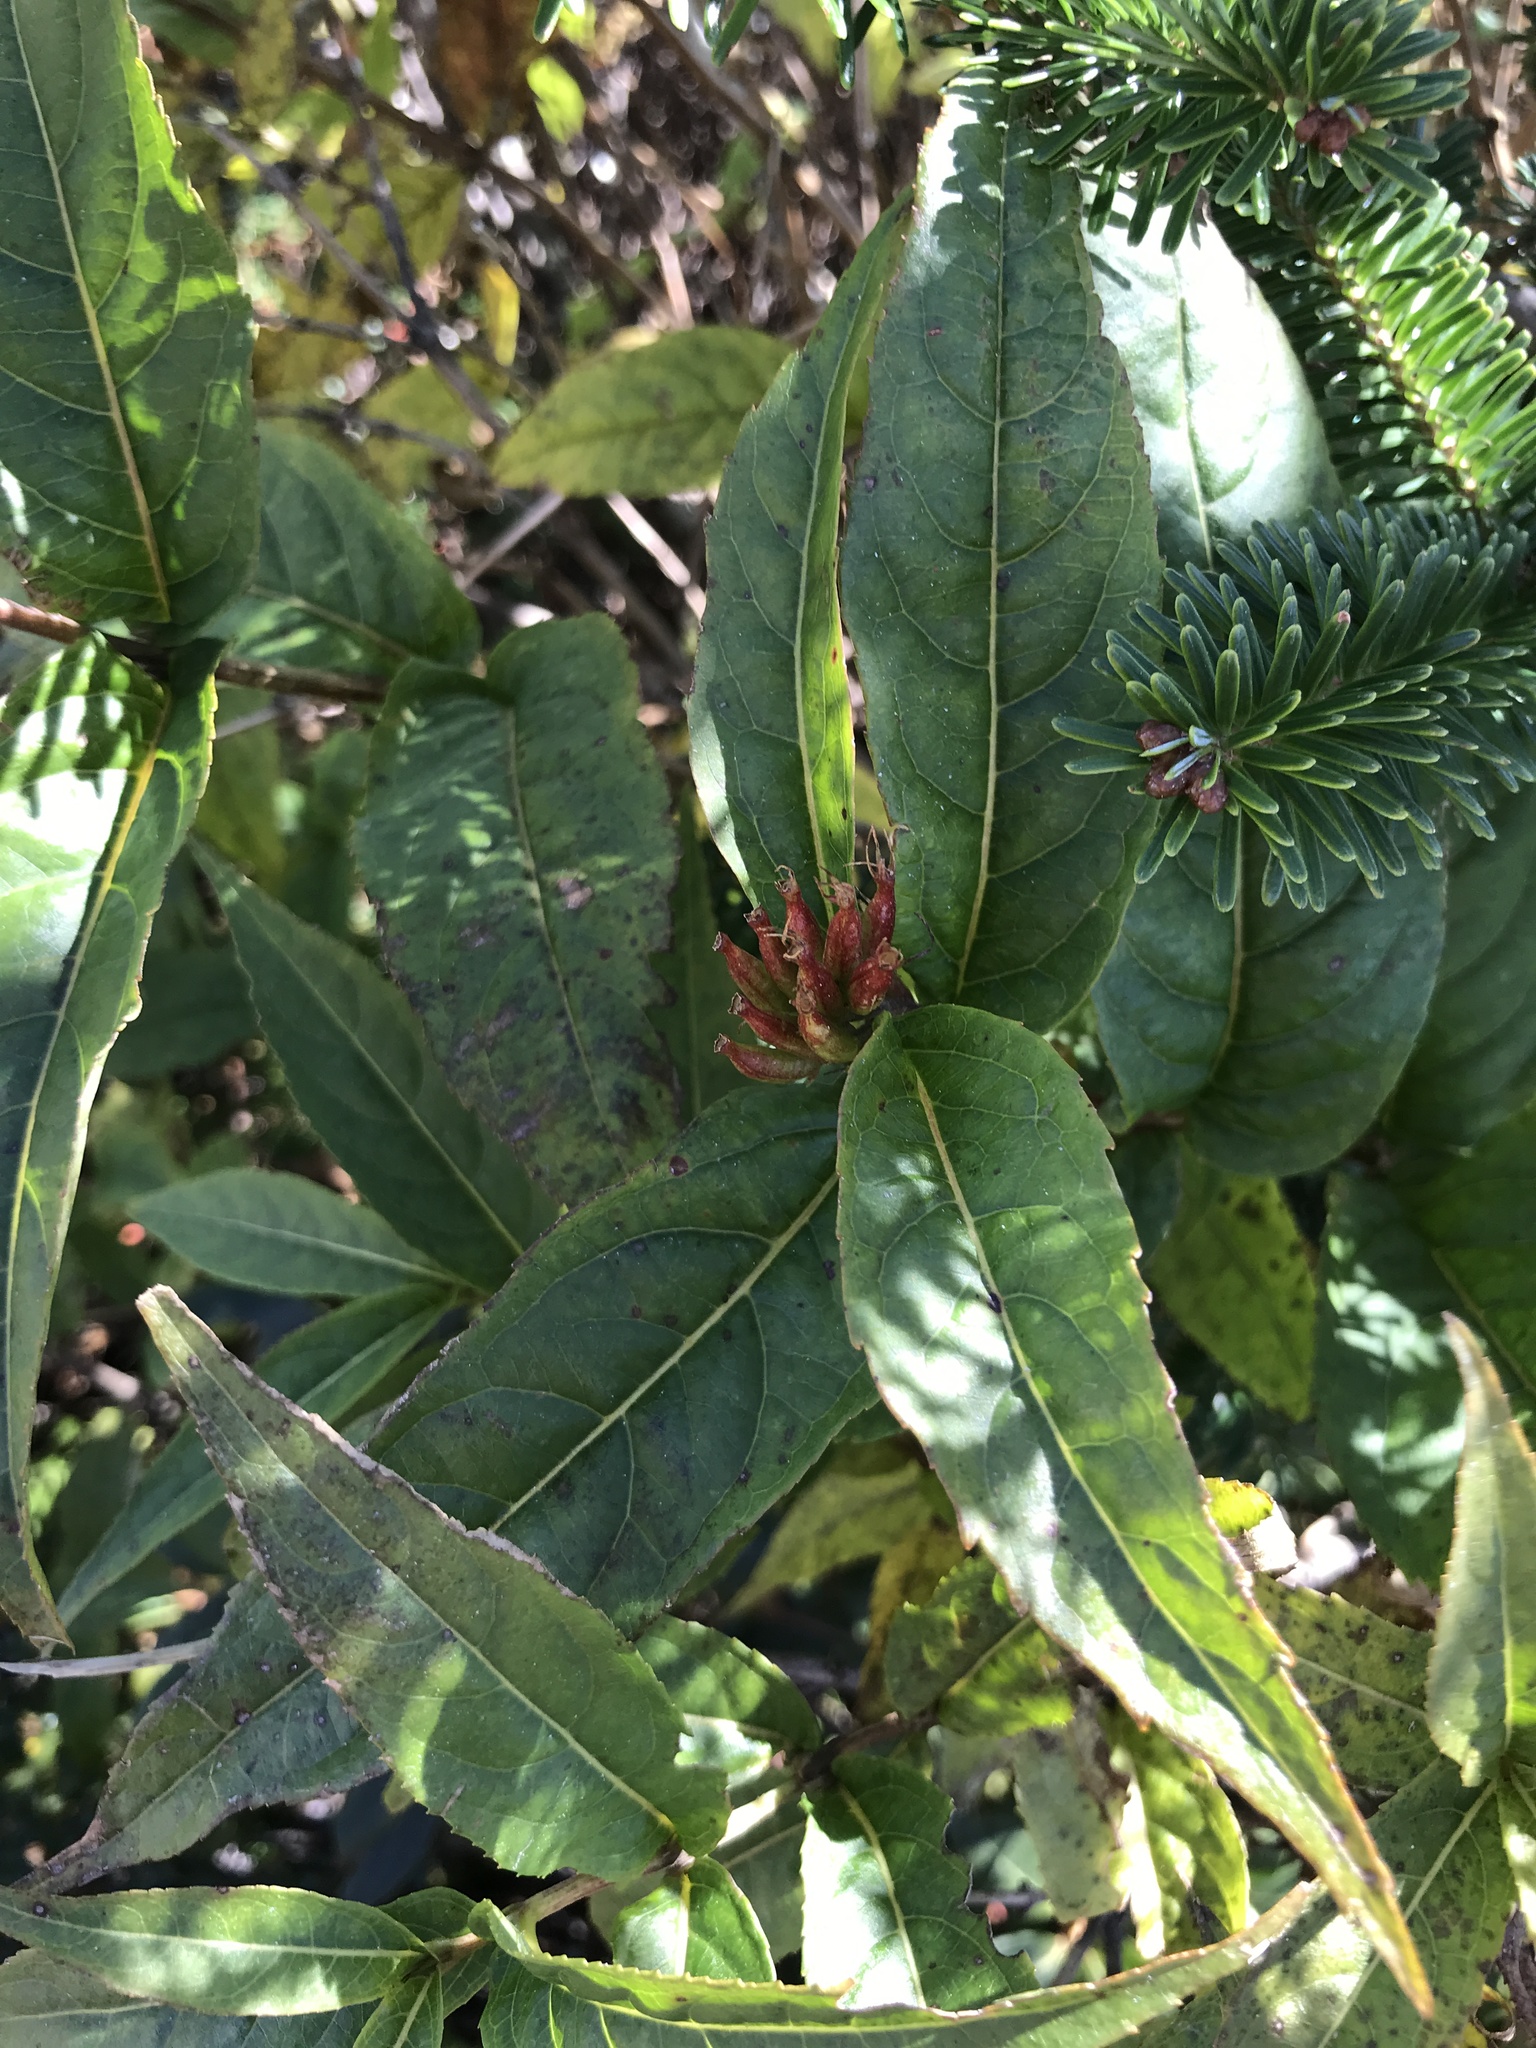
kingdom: Plantae
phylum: Tracheophyta
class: Magnoliopsida
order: Dipsacales
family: Caprifoliaceae
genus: Diervilla
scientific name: Diervilla sessilifolia
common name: Bush-honeysuckle
